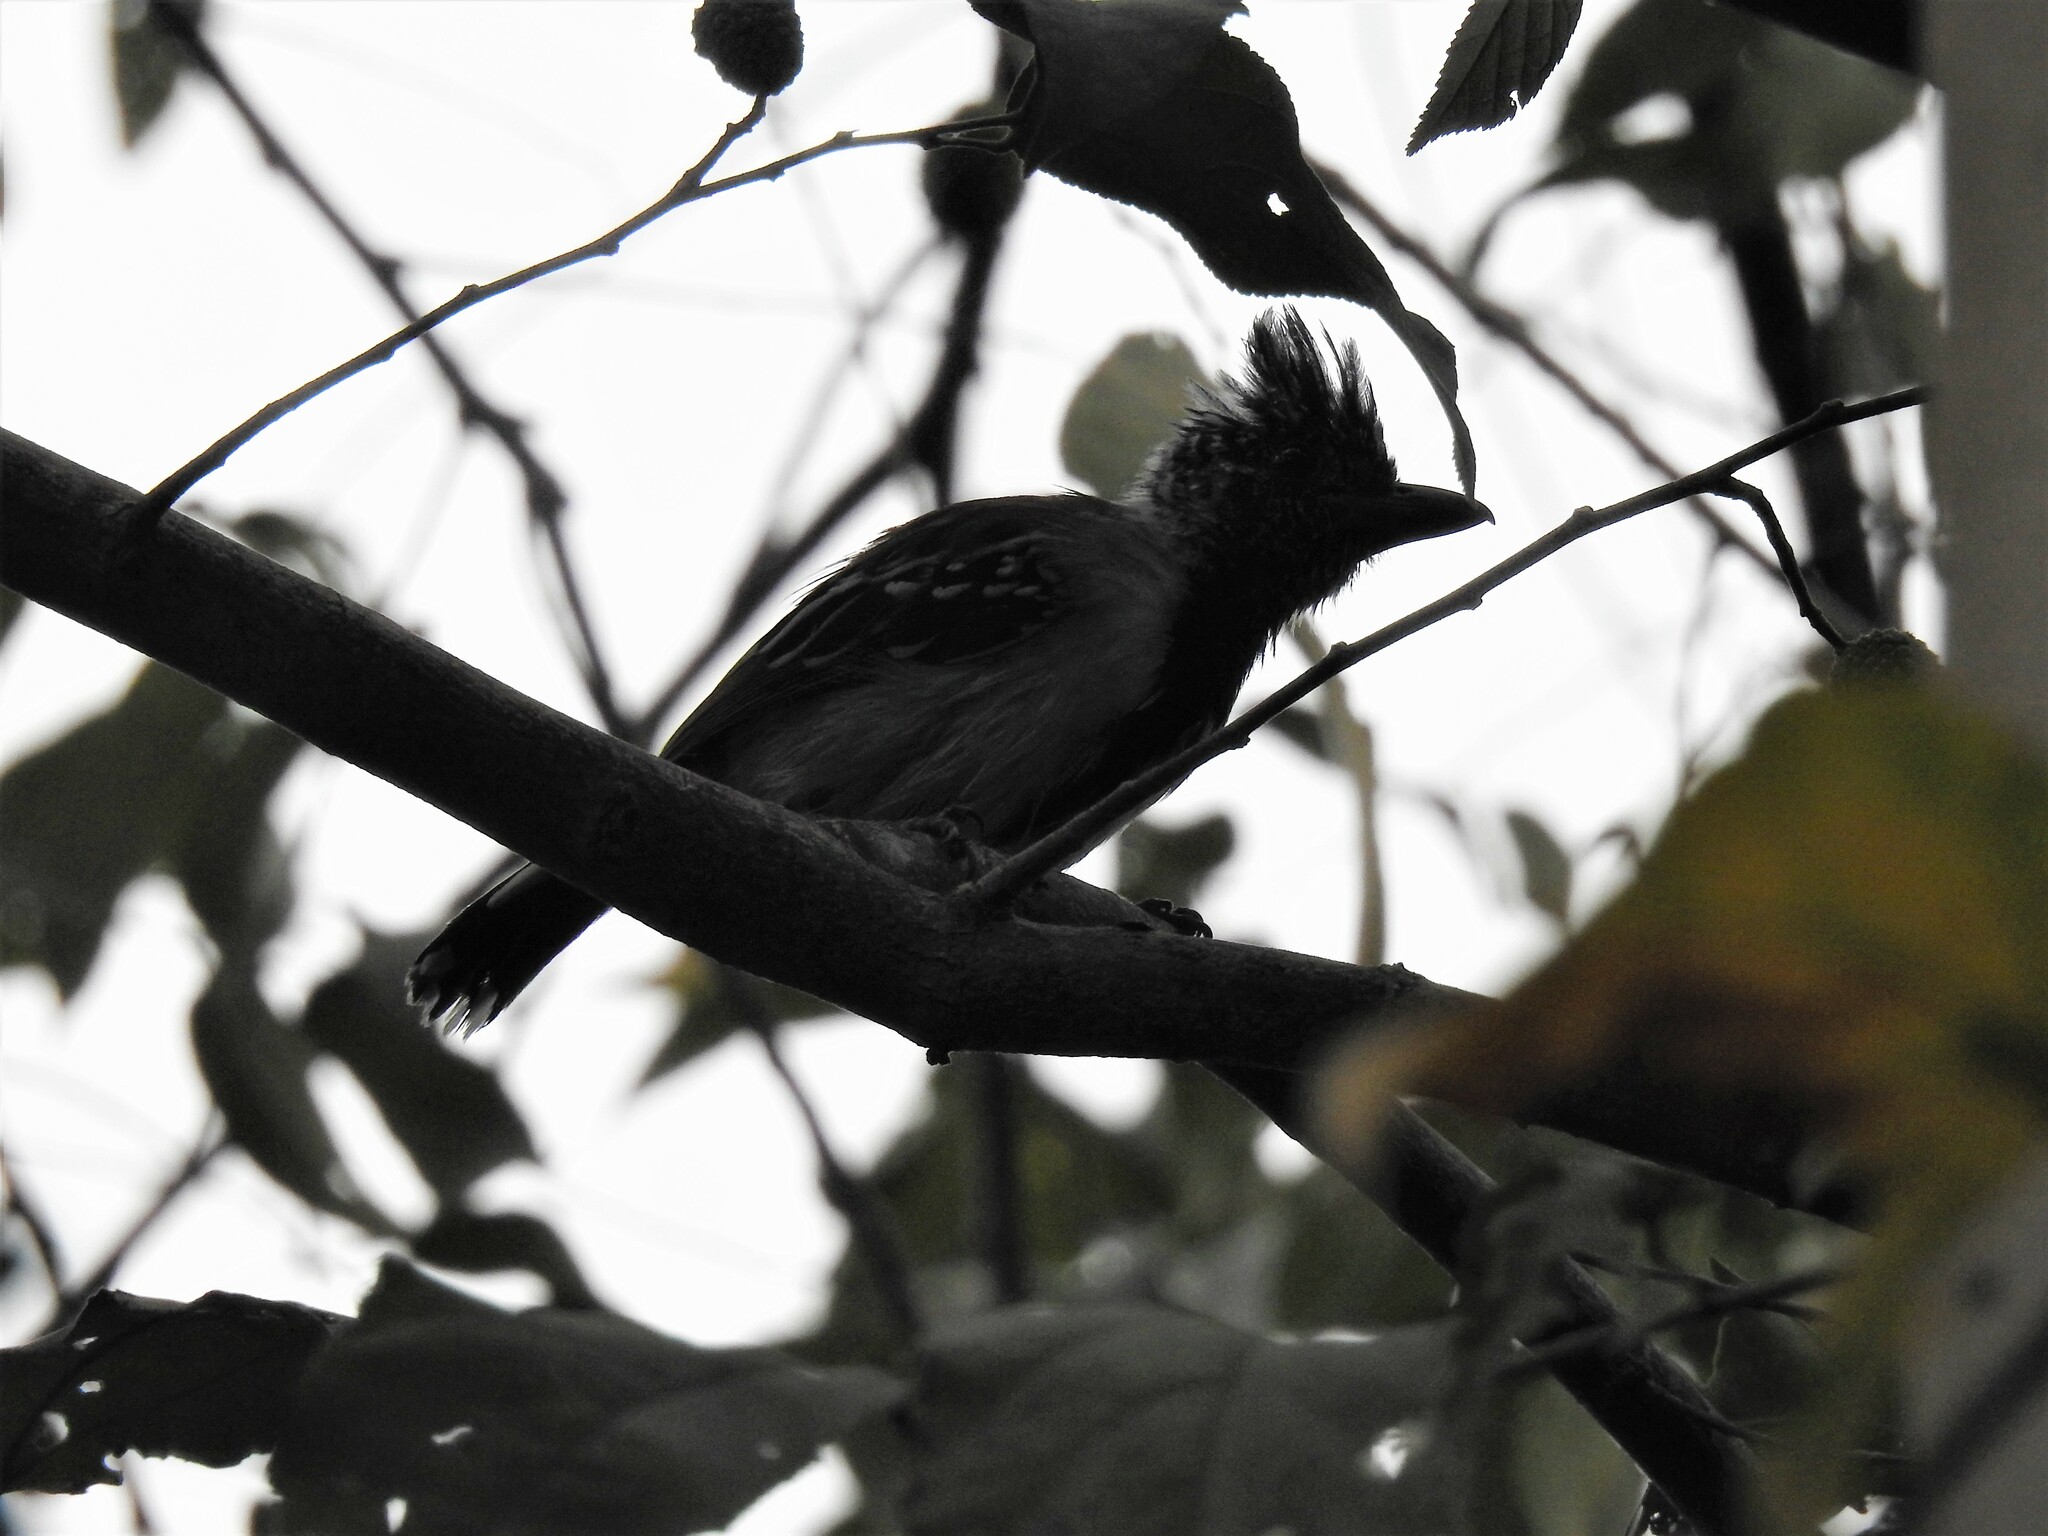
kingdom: Animalia
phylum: Chordata
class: Aves
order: Passeriformes
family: Thamnophilidae
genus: Sakesphorus
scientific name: Sakesphorus canadensis
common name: Black-crested antshrike
